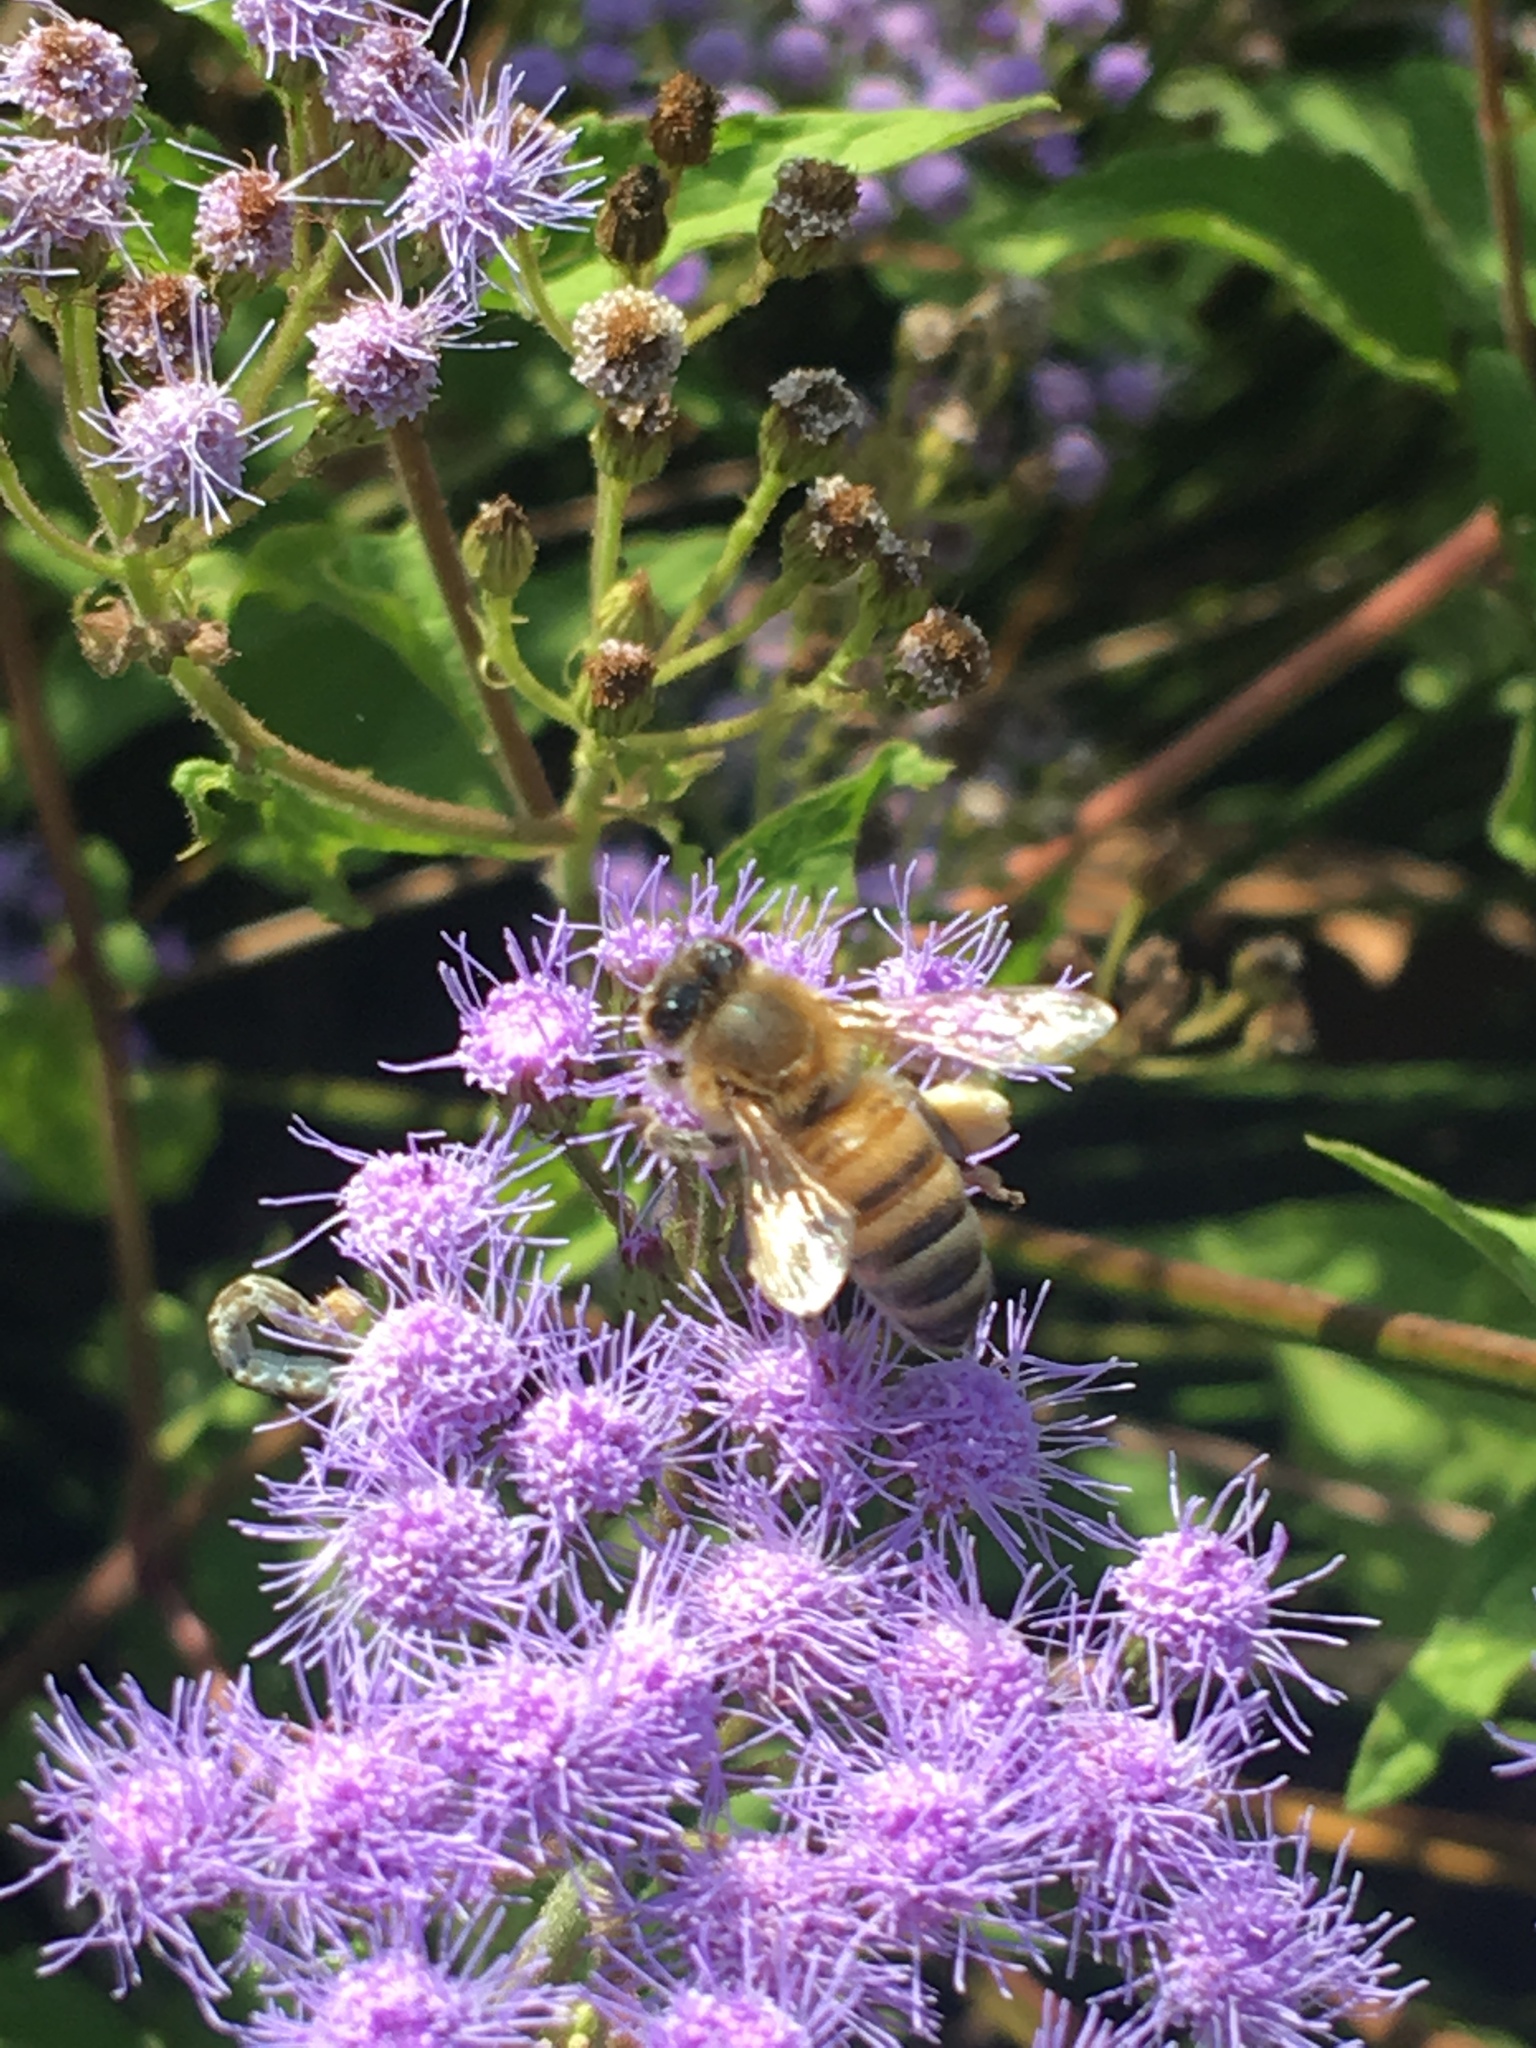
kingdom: Animalia
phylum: Arthropoda
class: Insecta
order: Hymenoptera
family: Apidae
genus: Apis
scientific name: Apis mellifera
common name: Honey bee
